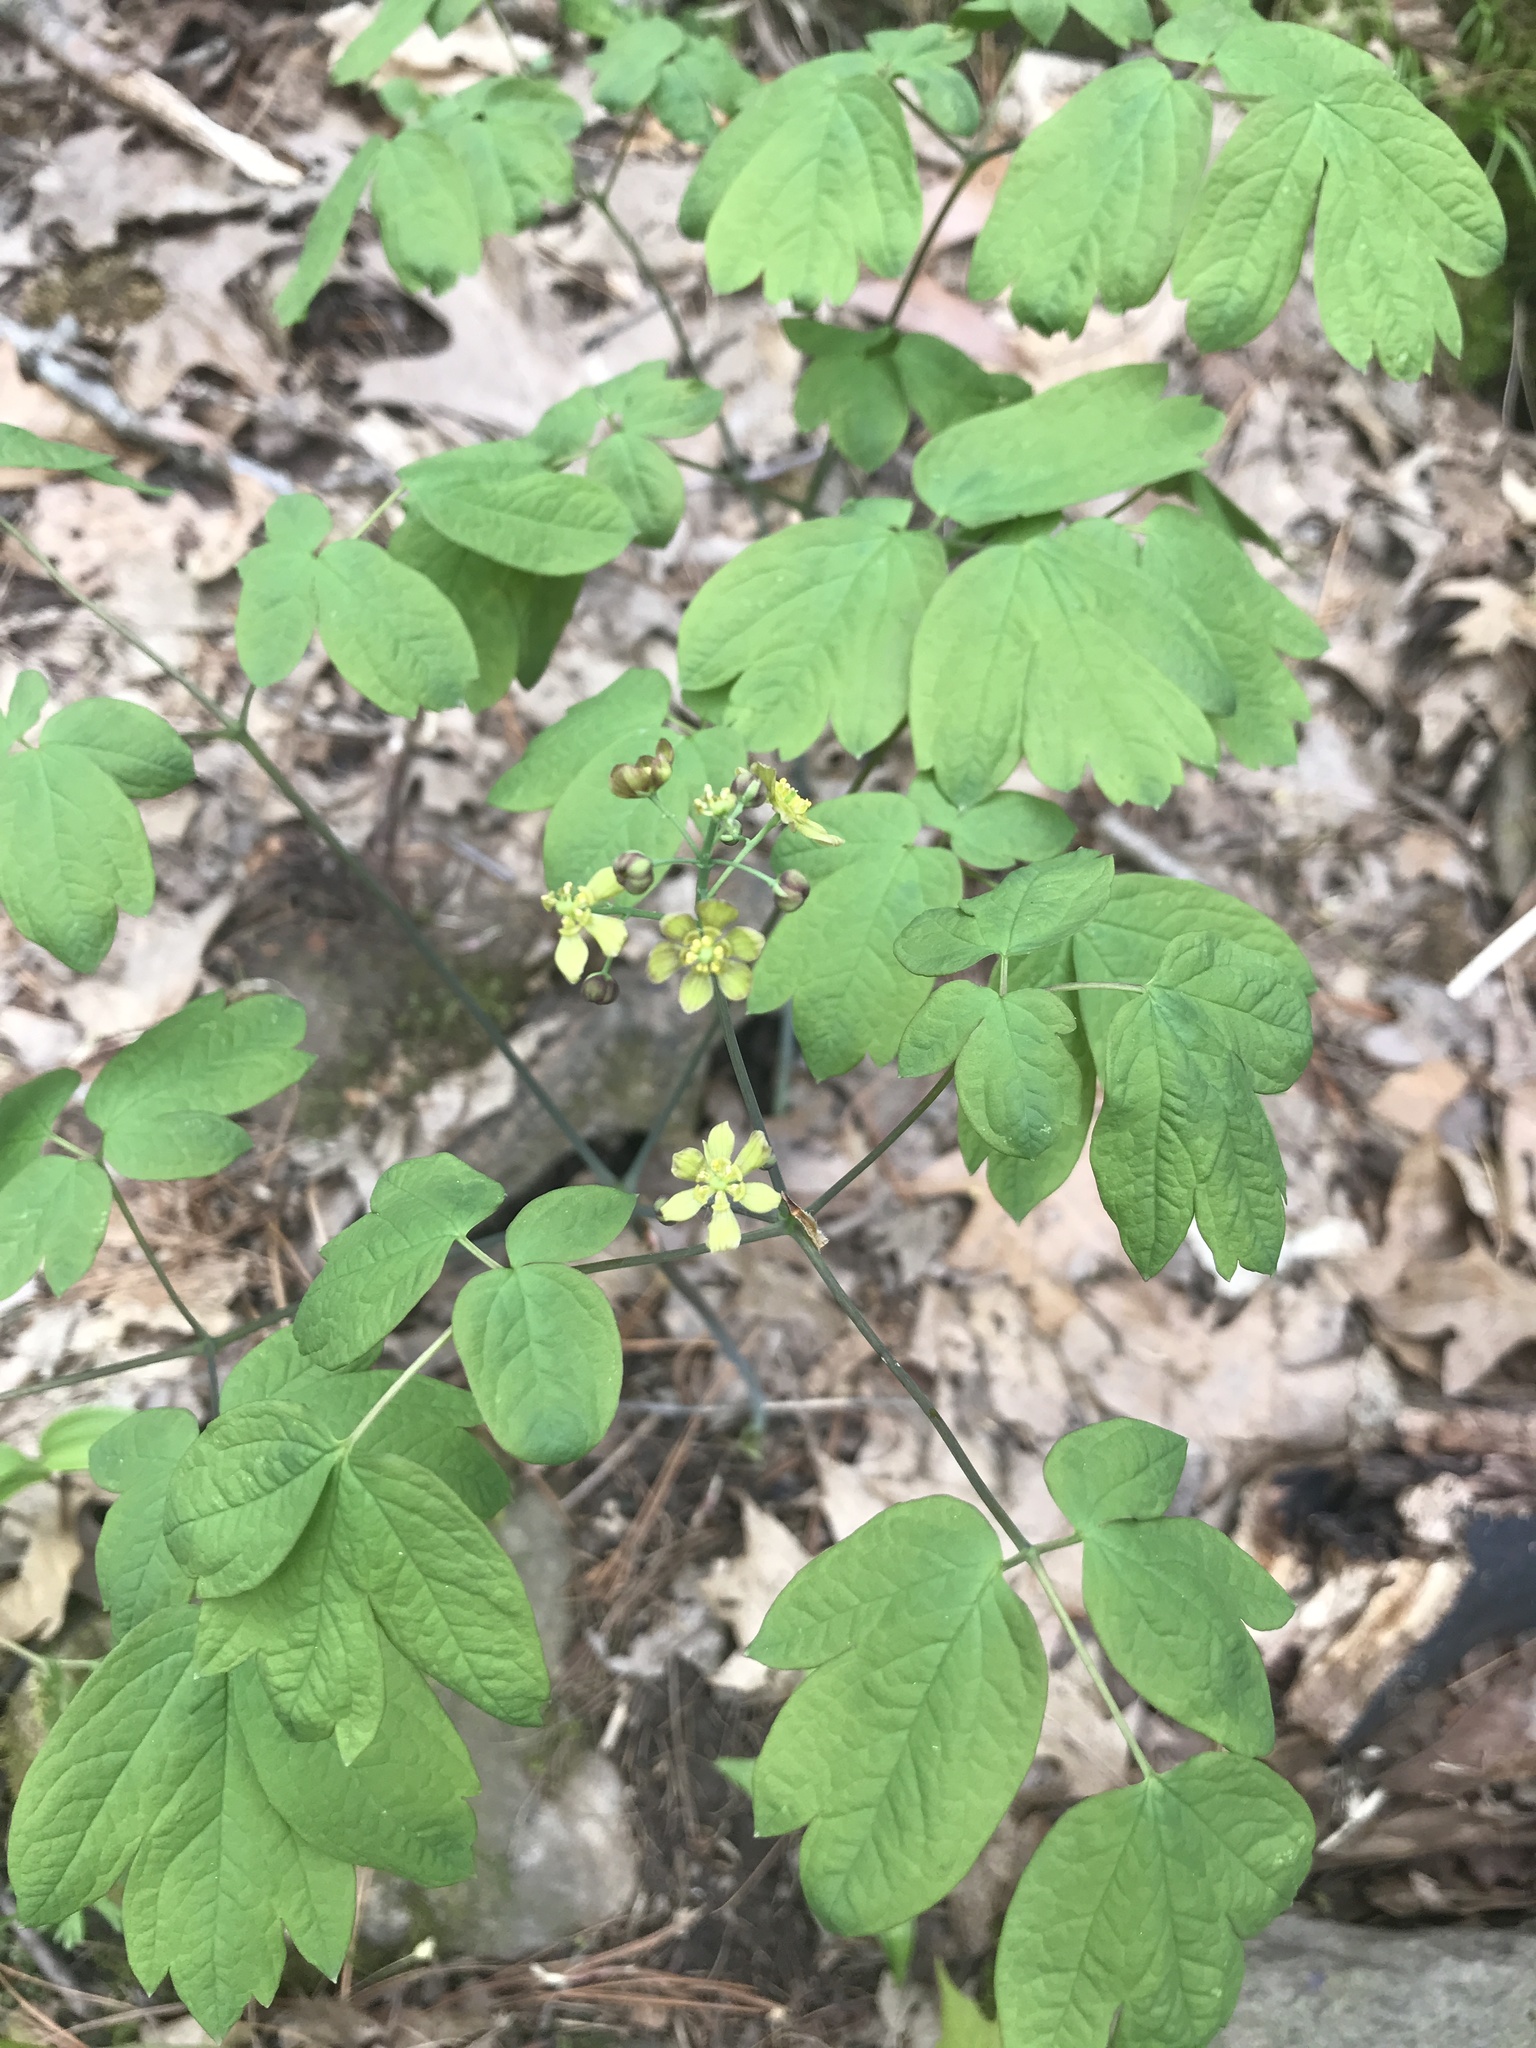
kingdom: Plantae
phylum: Tracheophyta
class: Magnoliopsida
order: Ranunculales
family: Berberidaceae
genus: Caulophyllum
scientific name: Caulophyllum thalictroides
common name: Blue cohosh
